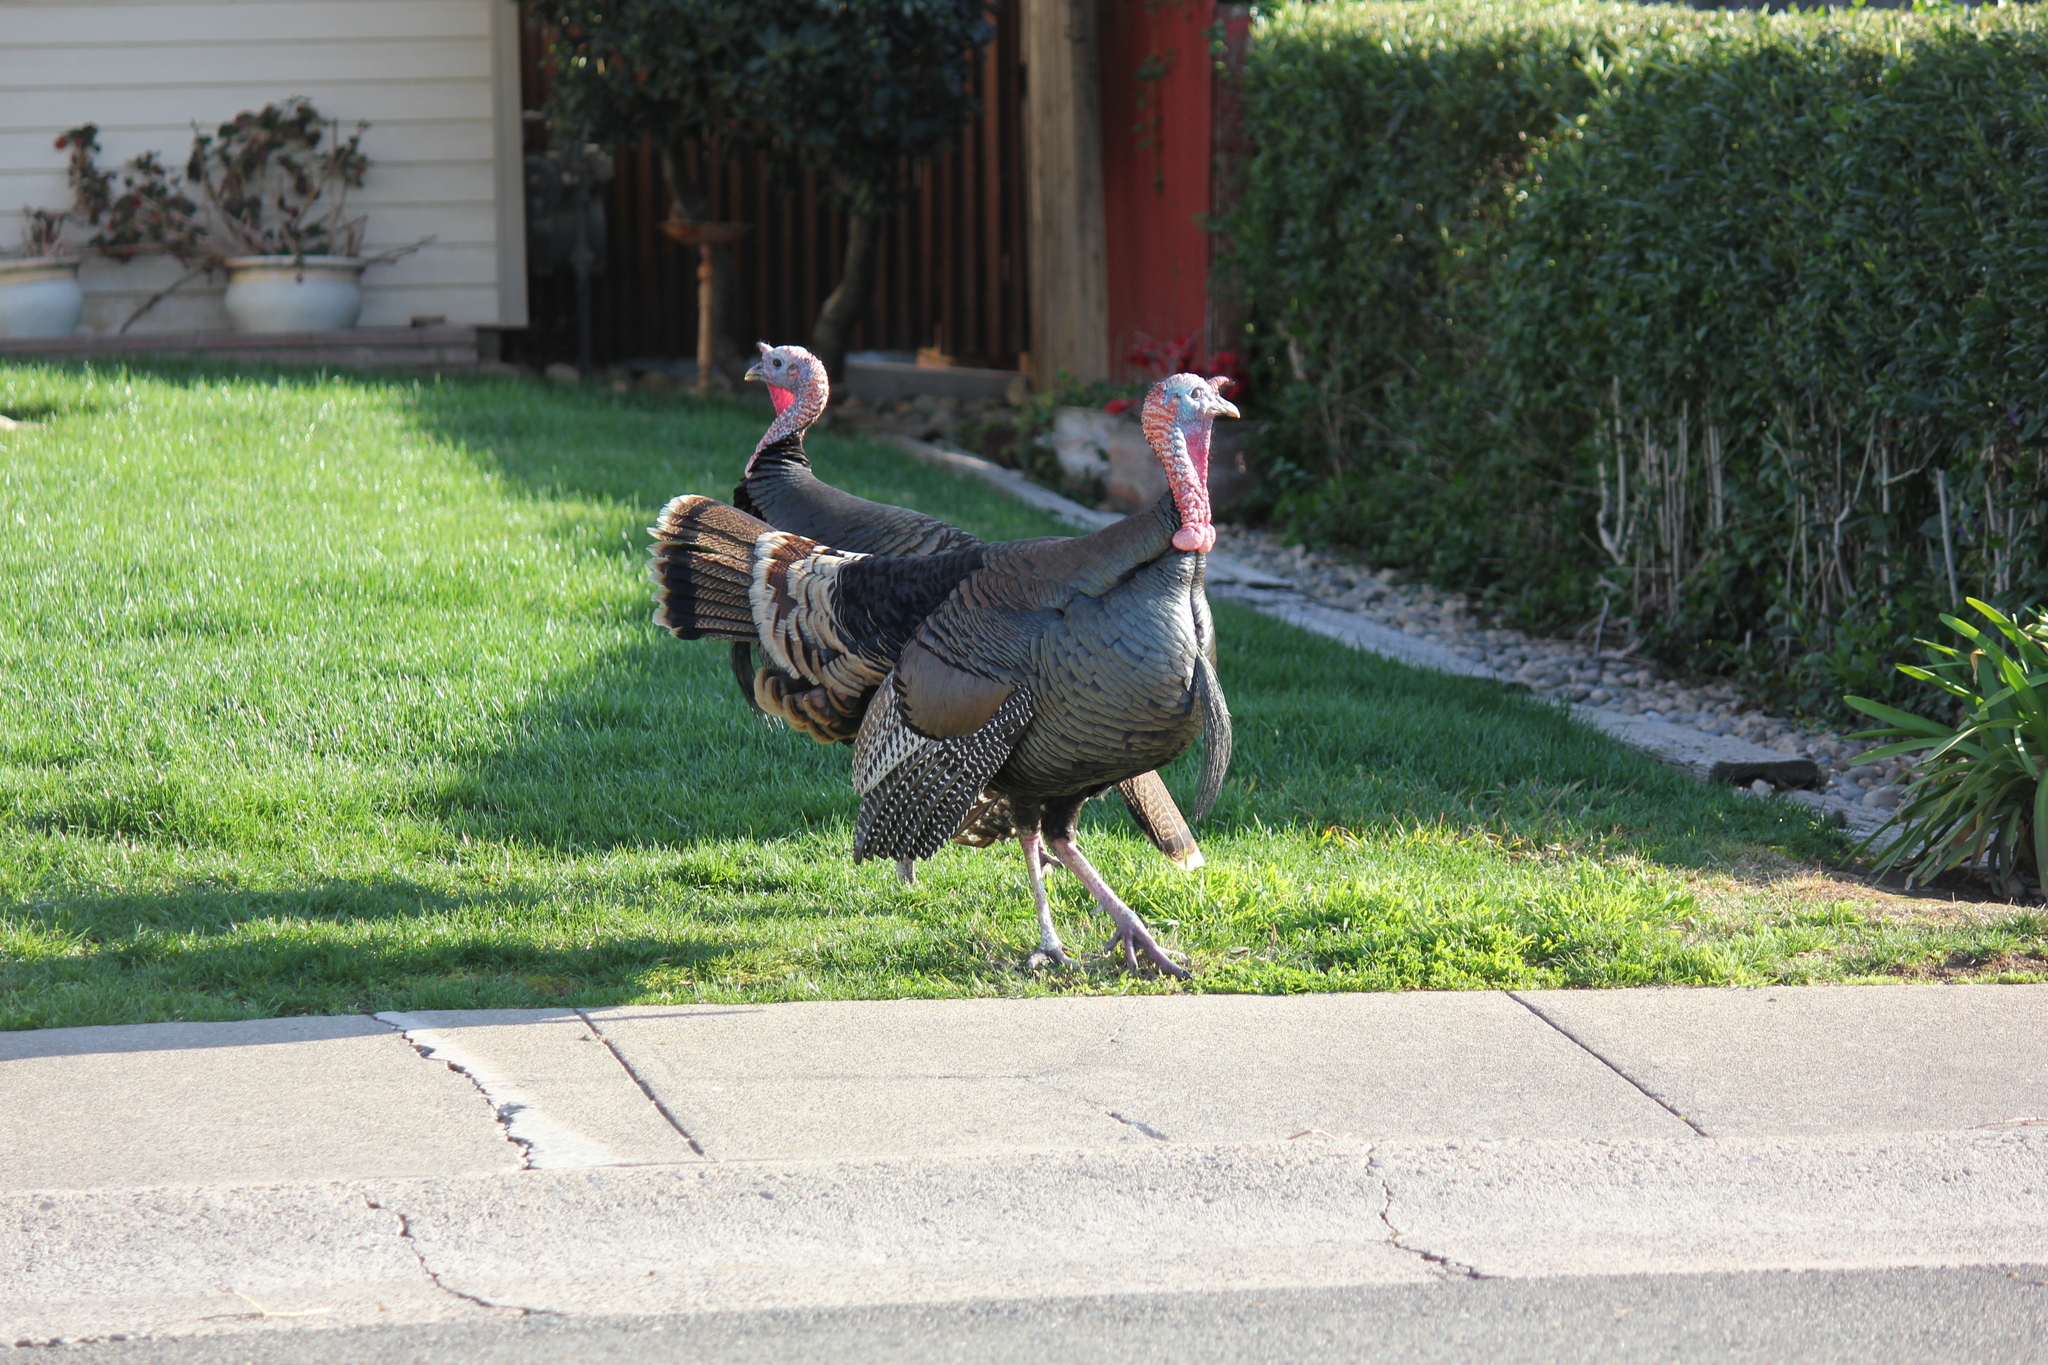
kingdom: Animalia
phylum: Chordata
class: Aves
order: Galliformes
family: Phasianidae
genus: Meleagris
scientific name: Meleagris gallopavo
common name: Wild turkey
